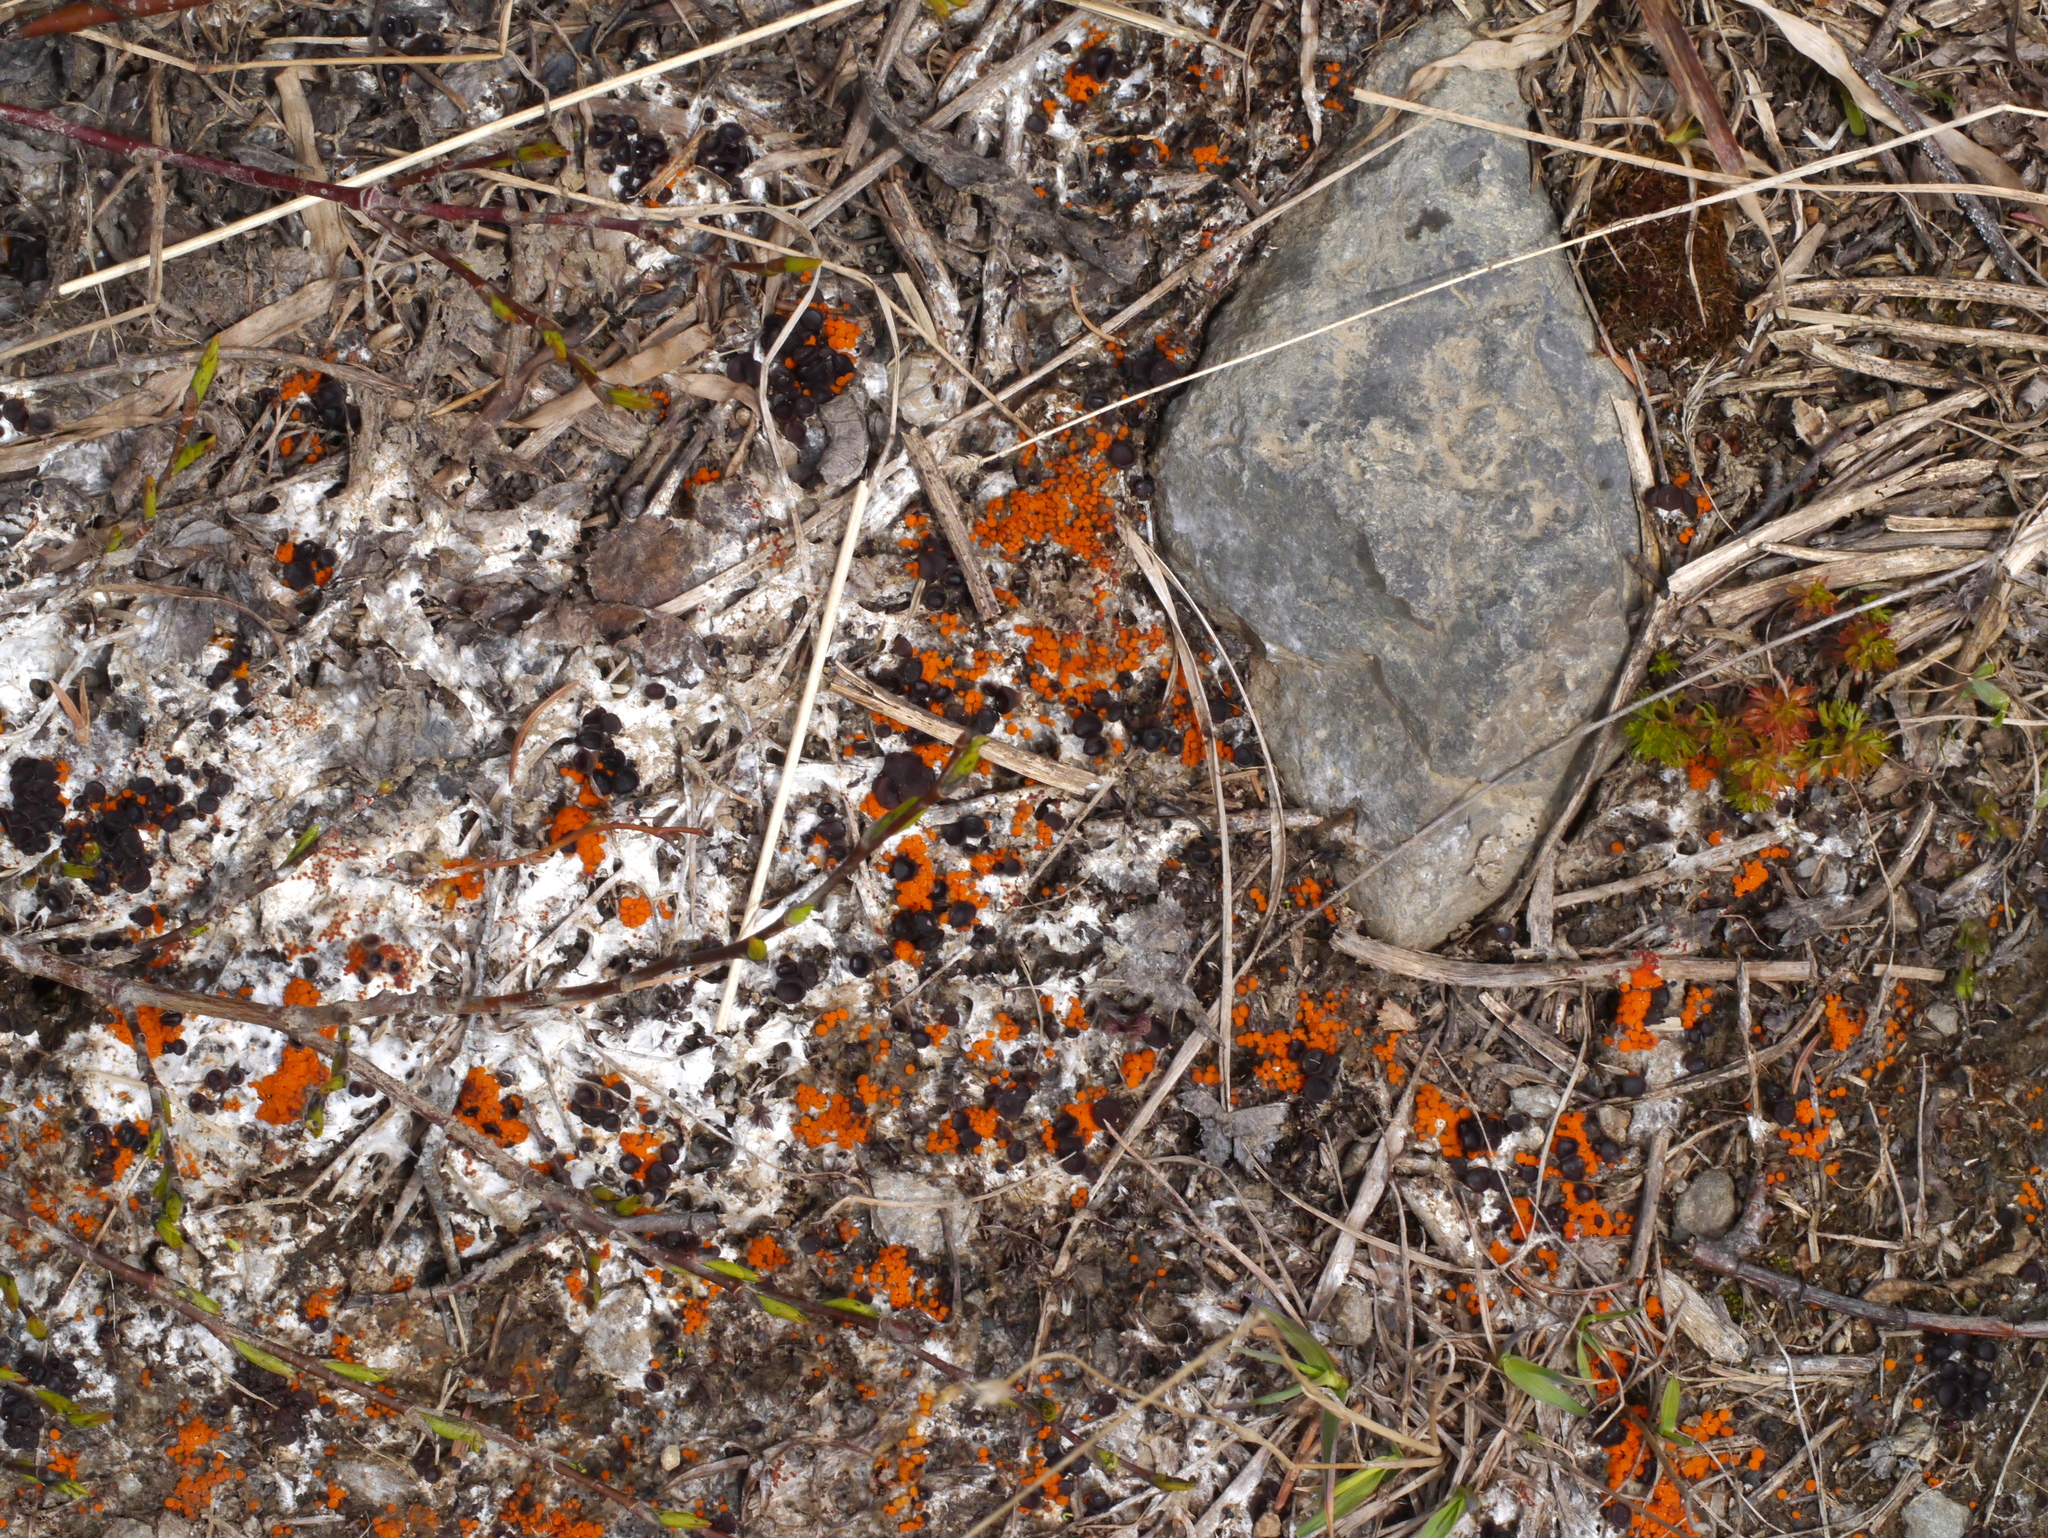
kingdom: Fungi
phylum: Ascomycota
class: Pezizomycetes
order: Pezizales
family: Pyronemataceae
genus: Byssonectria
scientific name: Byssonectria terrestris
